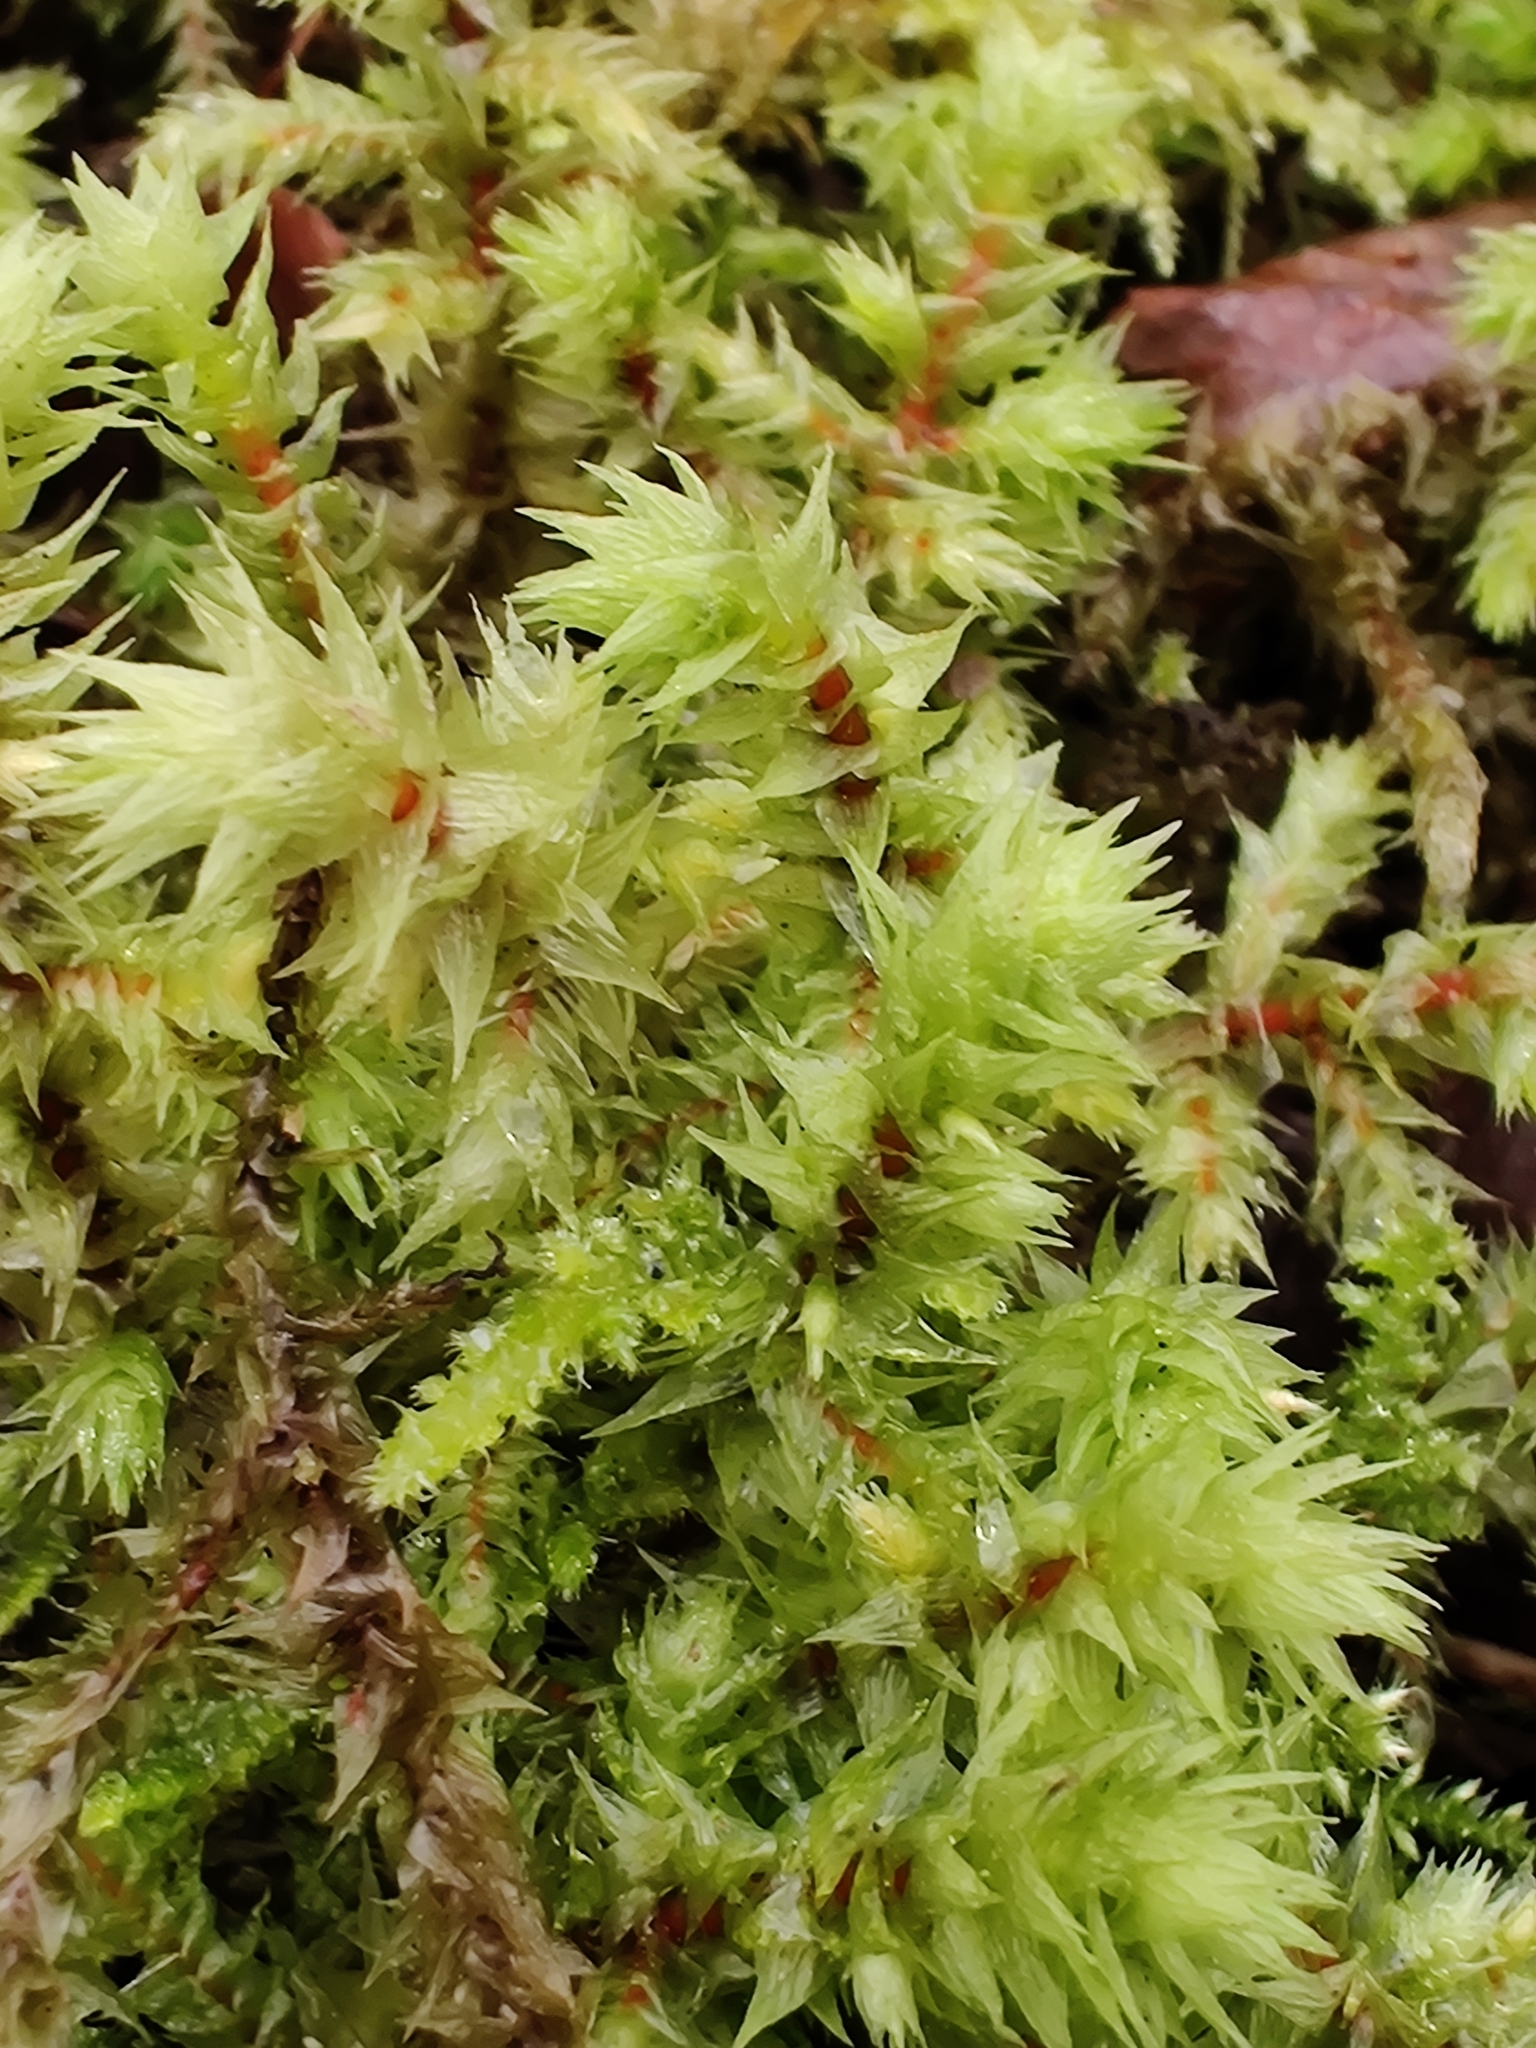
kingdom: Plantae
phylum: Bryophyta
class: Bryopsida
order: Hypnales
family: Hylocomiaceae
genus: Hylocomiadelphus
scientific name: Hylocomiadelphus triquetrus
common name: Rough goose neck moss
